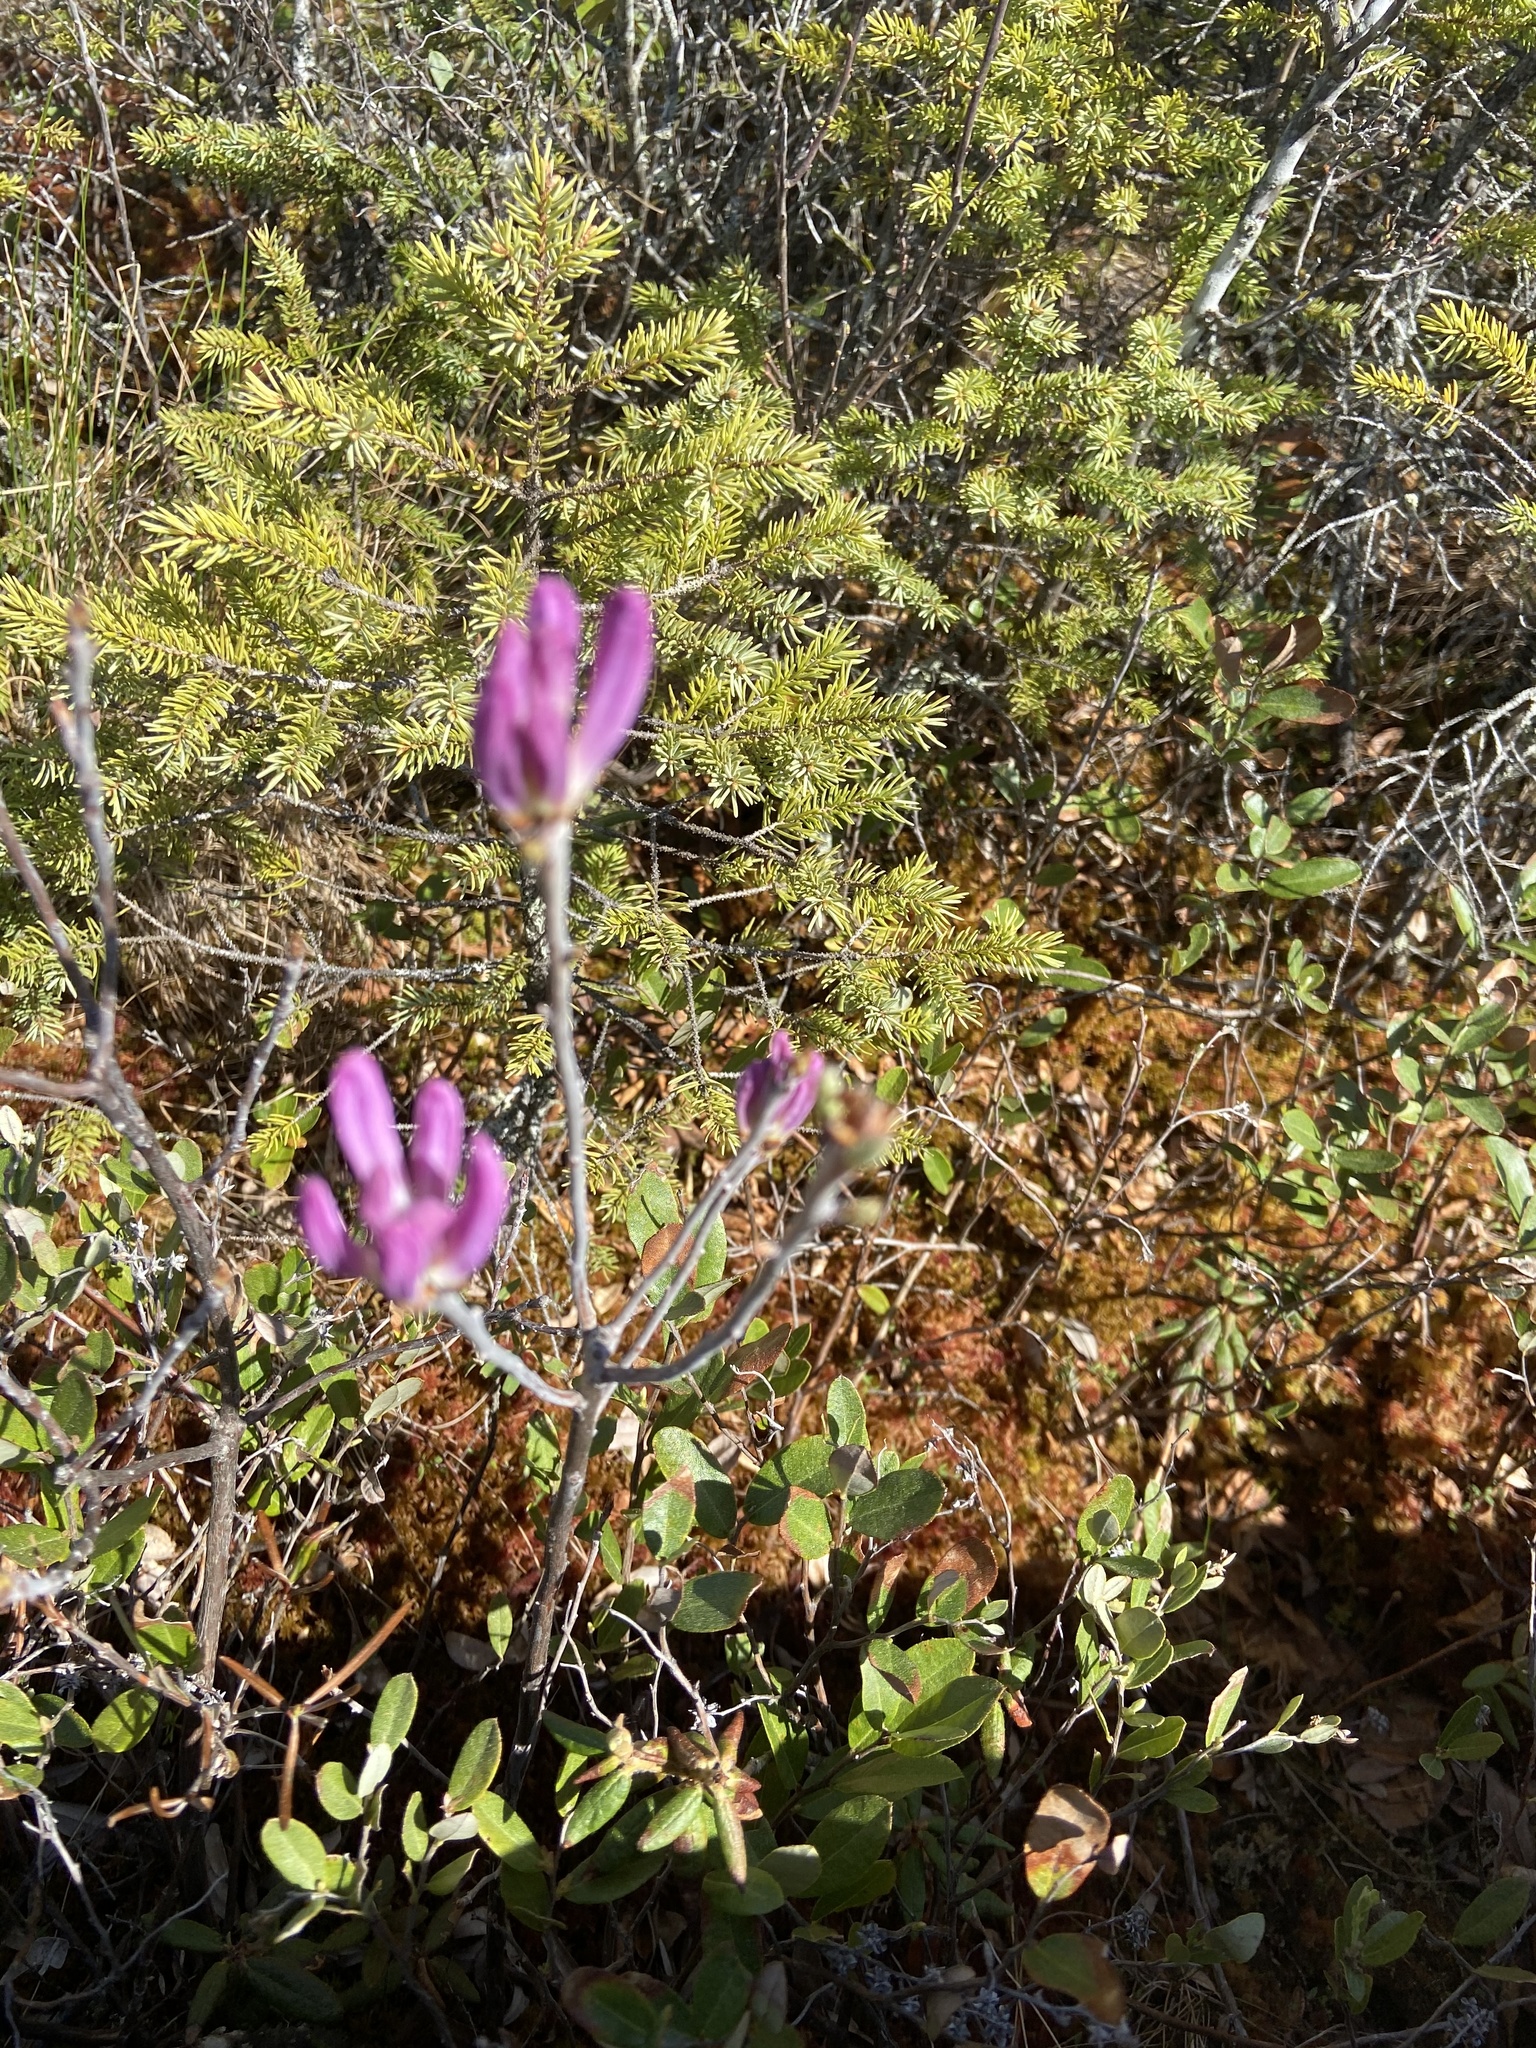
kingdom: Plantae
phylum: Tracheophyta
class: Magnoliopsida
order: Ericales
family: Ericaceae
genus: Rhododendron
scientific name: Rhododendron canadense
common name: Rhodora
